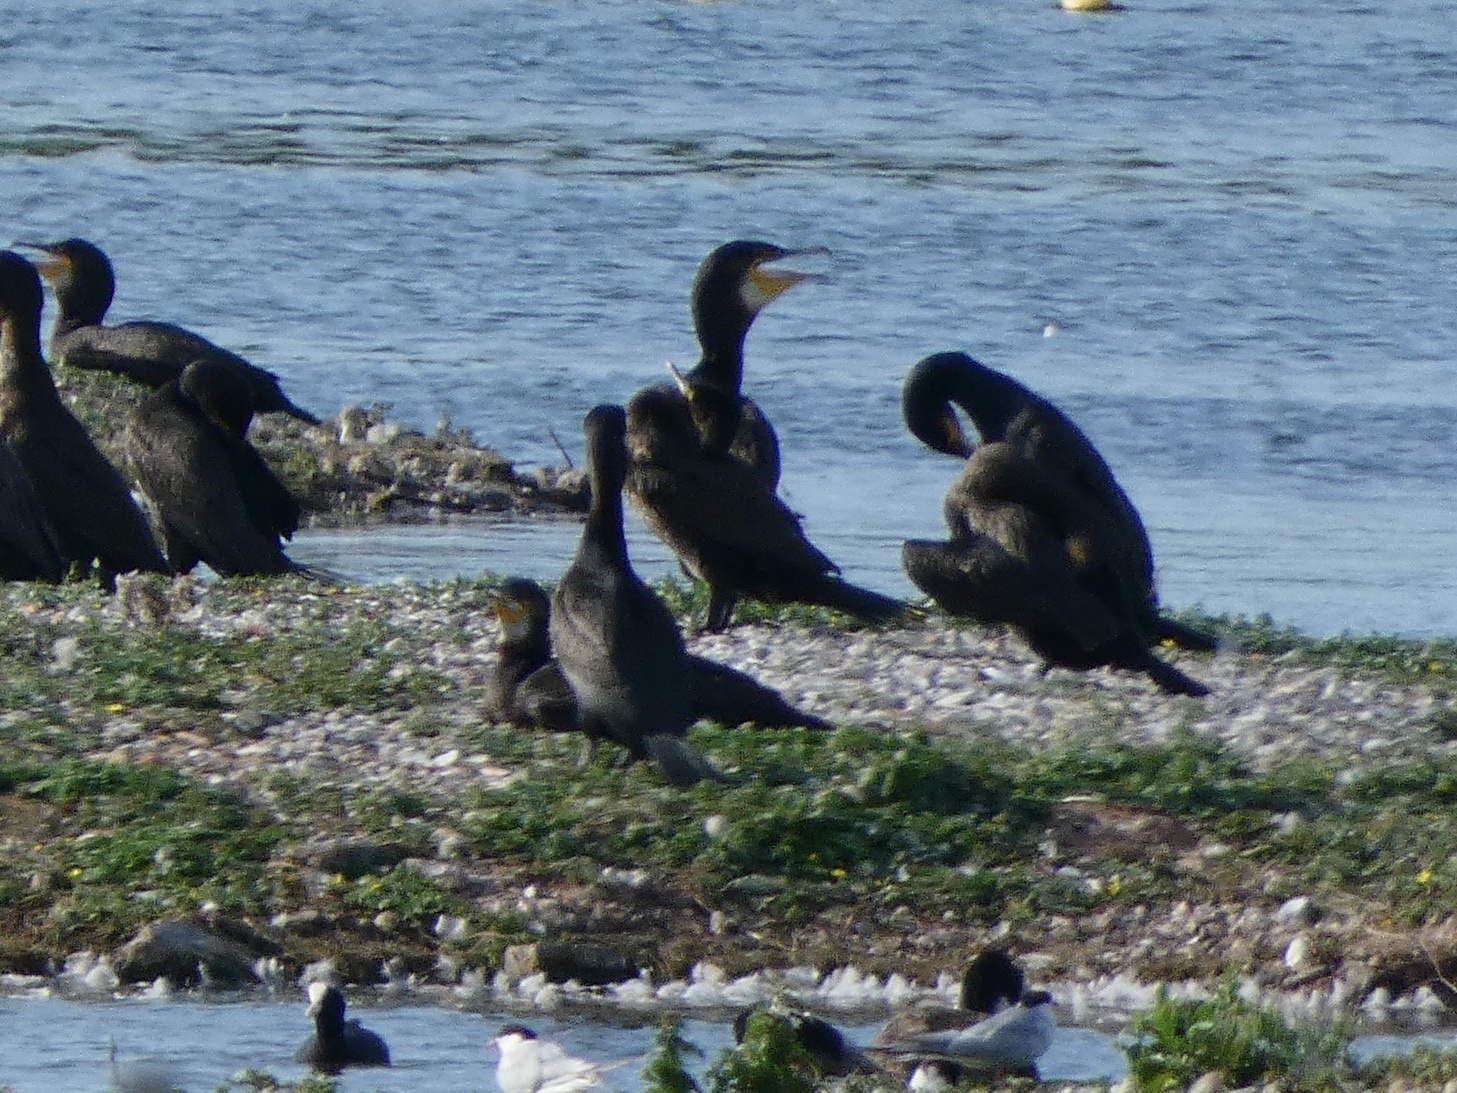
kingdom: Animalia
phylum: Chordata
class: Aves
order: Suliformes
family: Phalacrocoracidae
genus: Phalacrocorax
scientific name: Phalacrocorax carbo
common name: Great cormorant
